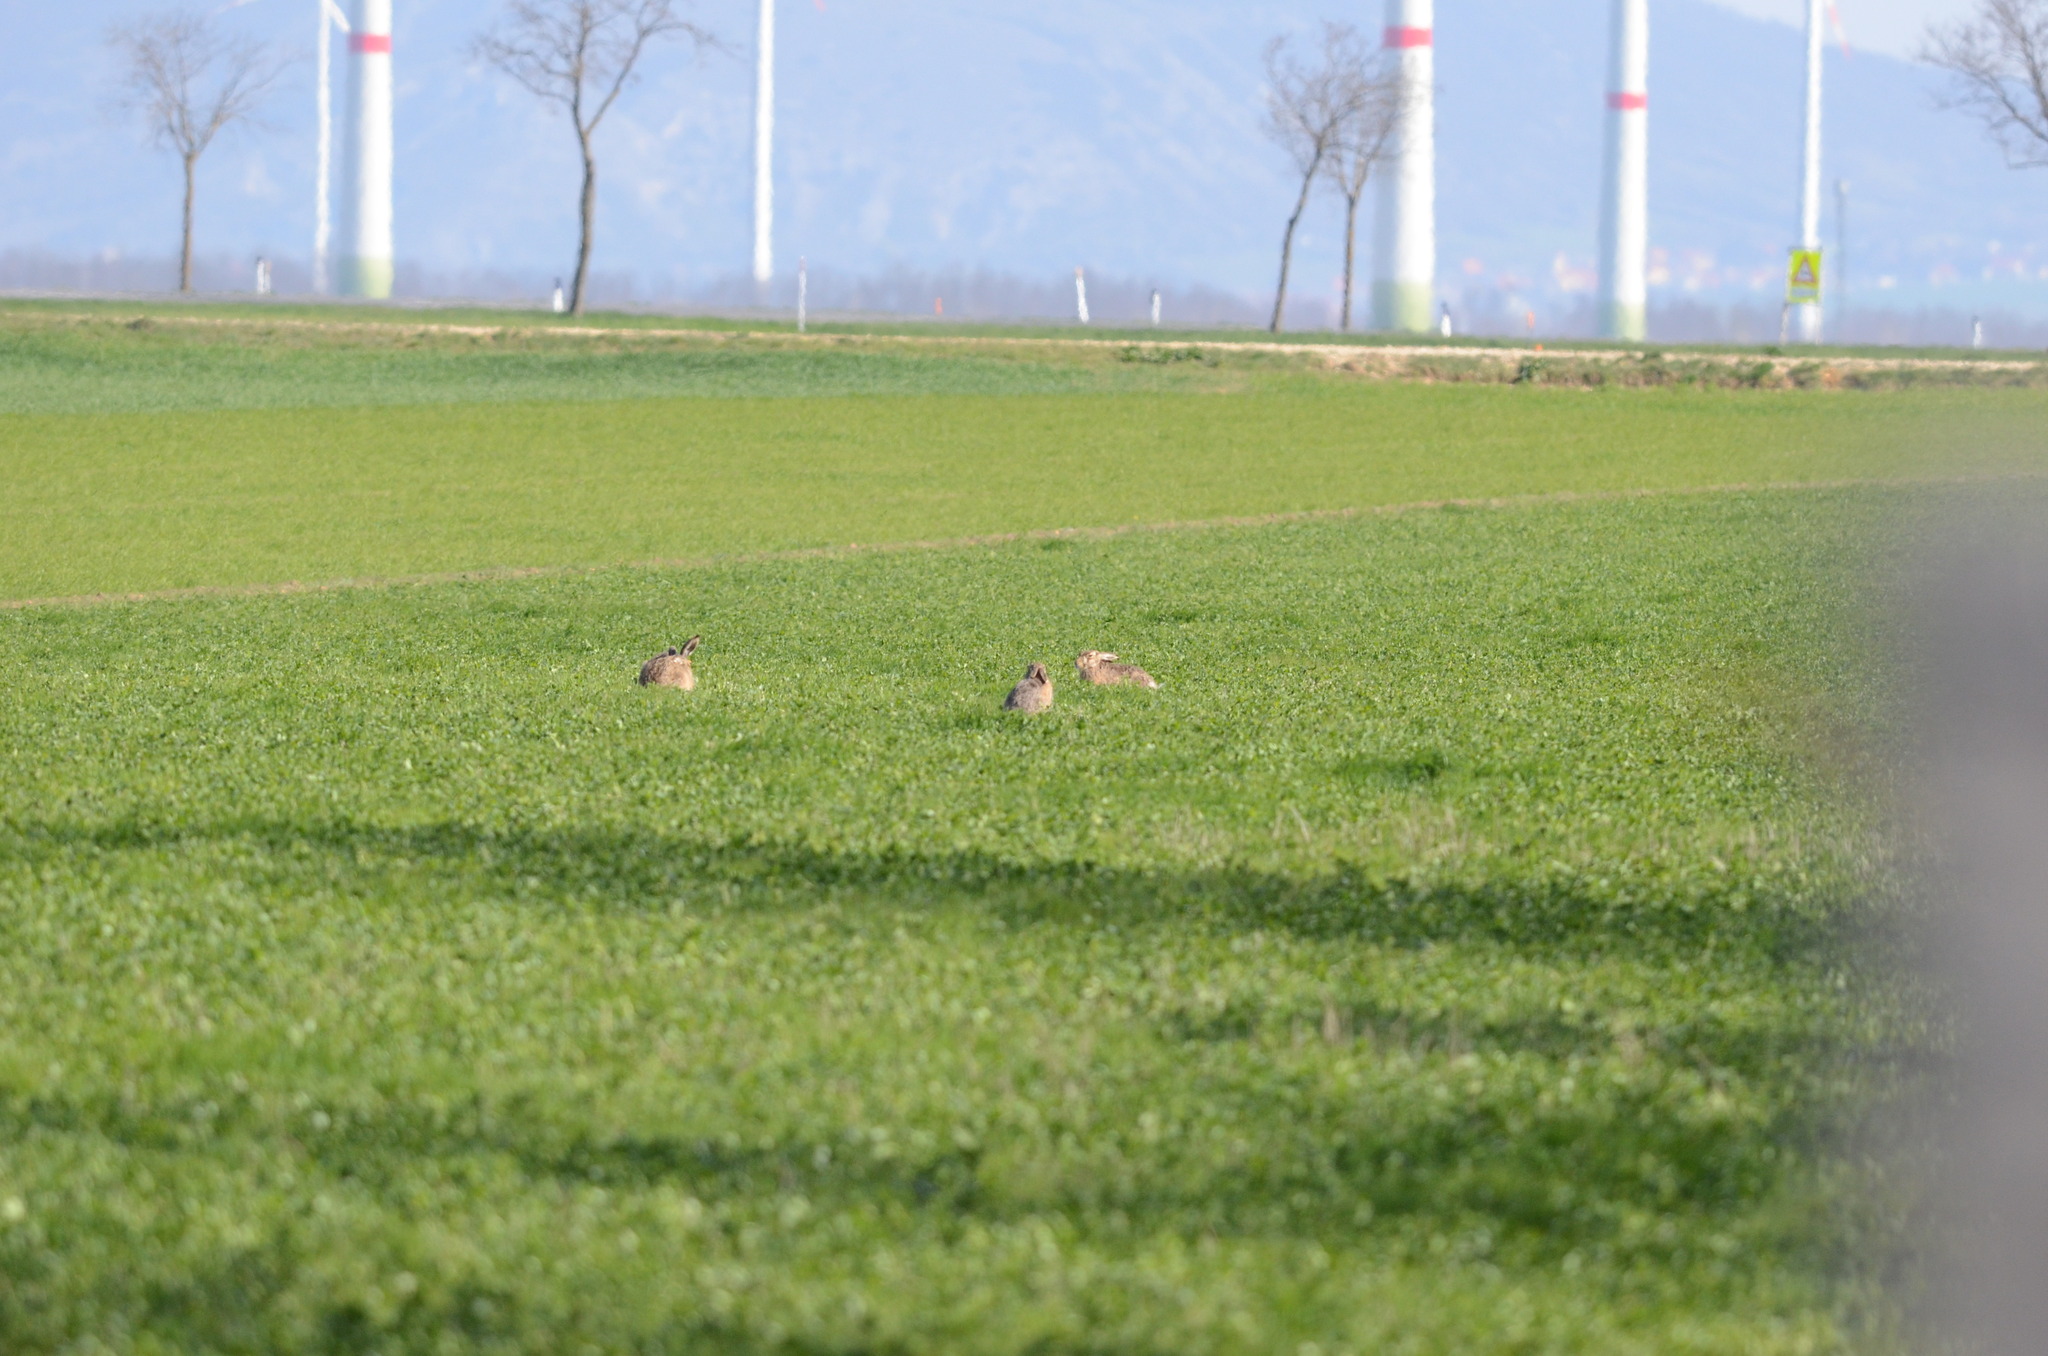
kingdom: Animalia
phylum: Chordata
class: Mammalia
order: Lagomorpha
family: Leporidae
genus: Lepus
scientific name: Lepus europaeus
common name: European hare
